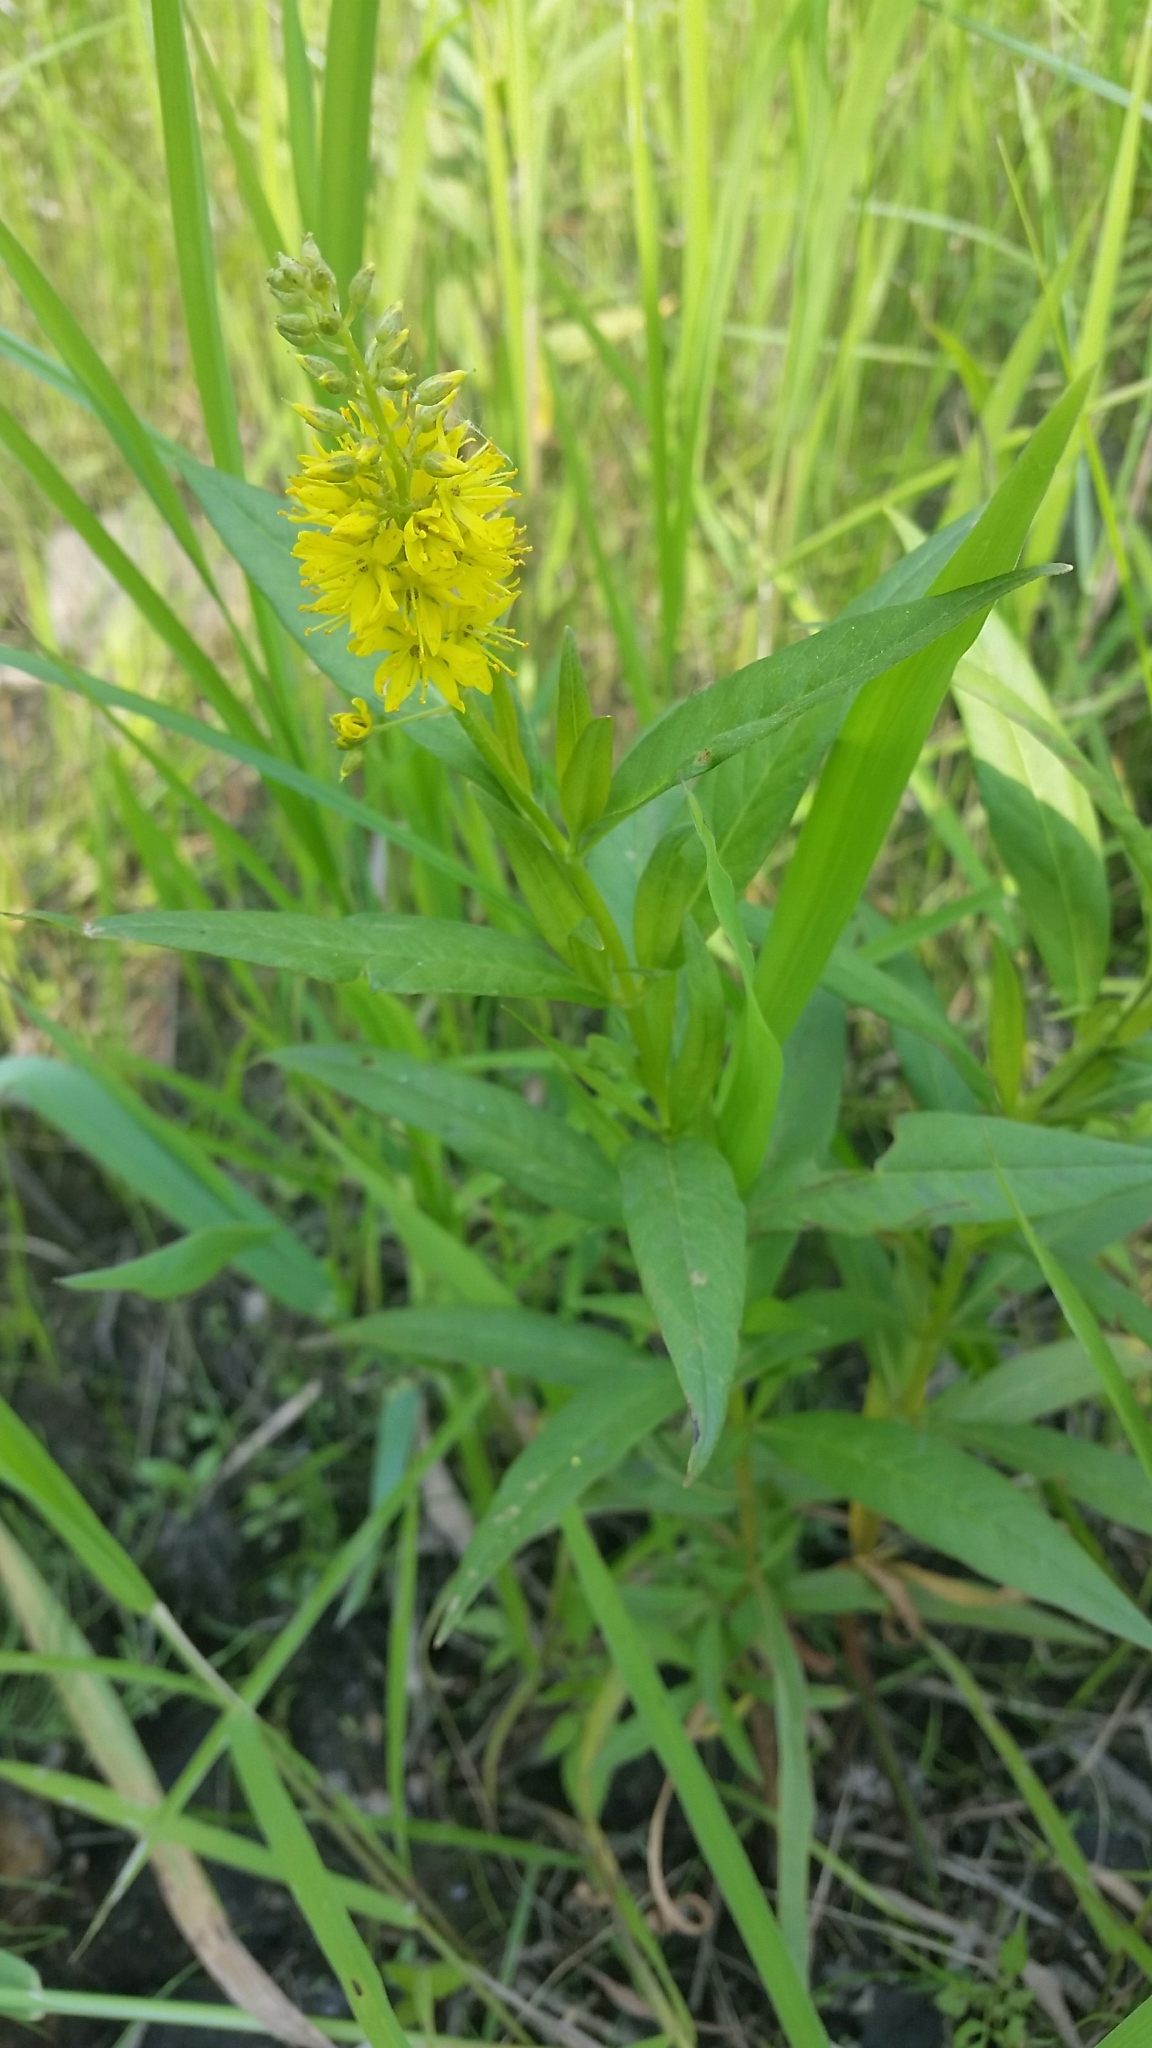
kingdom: Plantae
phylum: Tracheophyta
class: Magnoliopsida
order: Ericales
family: Primulaceae
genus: Lysimachia
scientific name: Lysimachia terrestris
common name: Lake loosestrife
